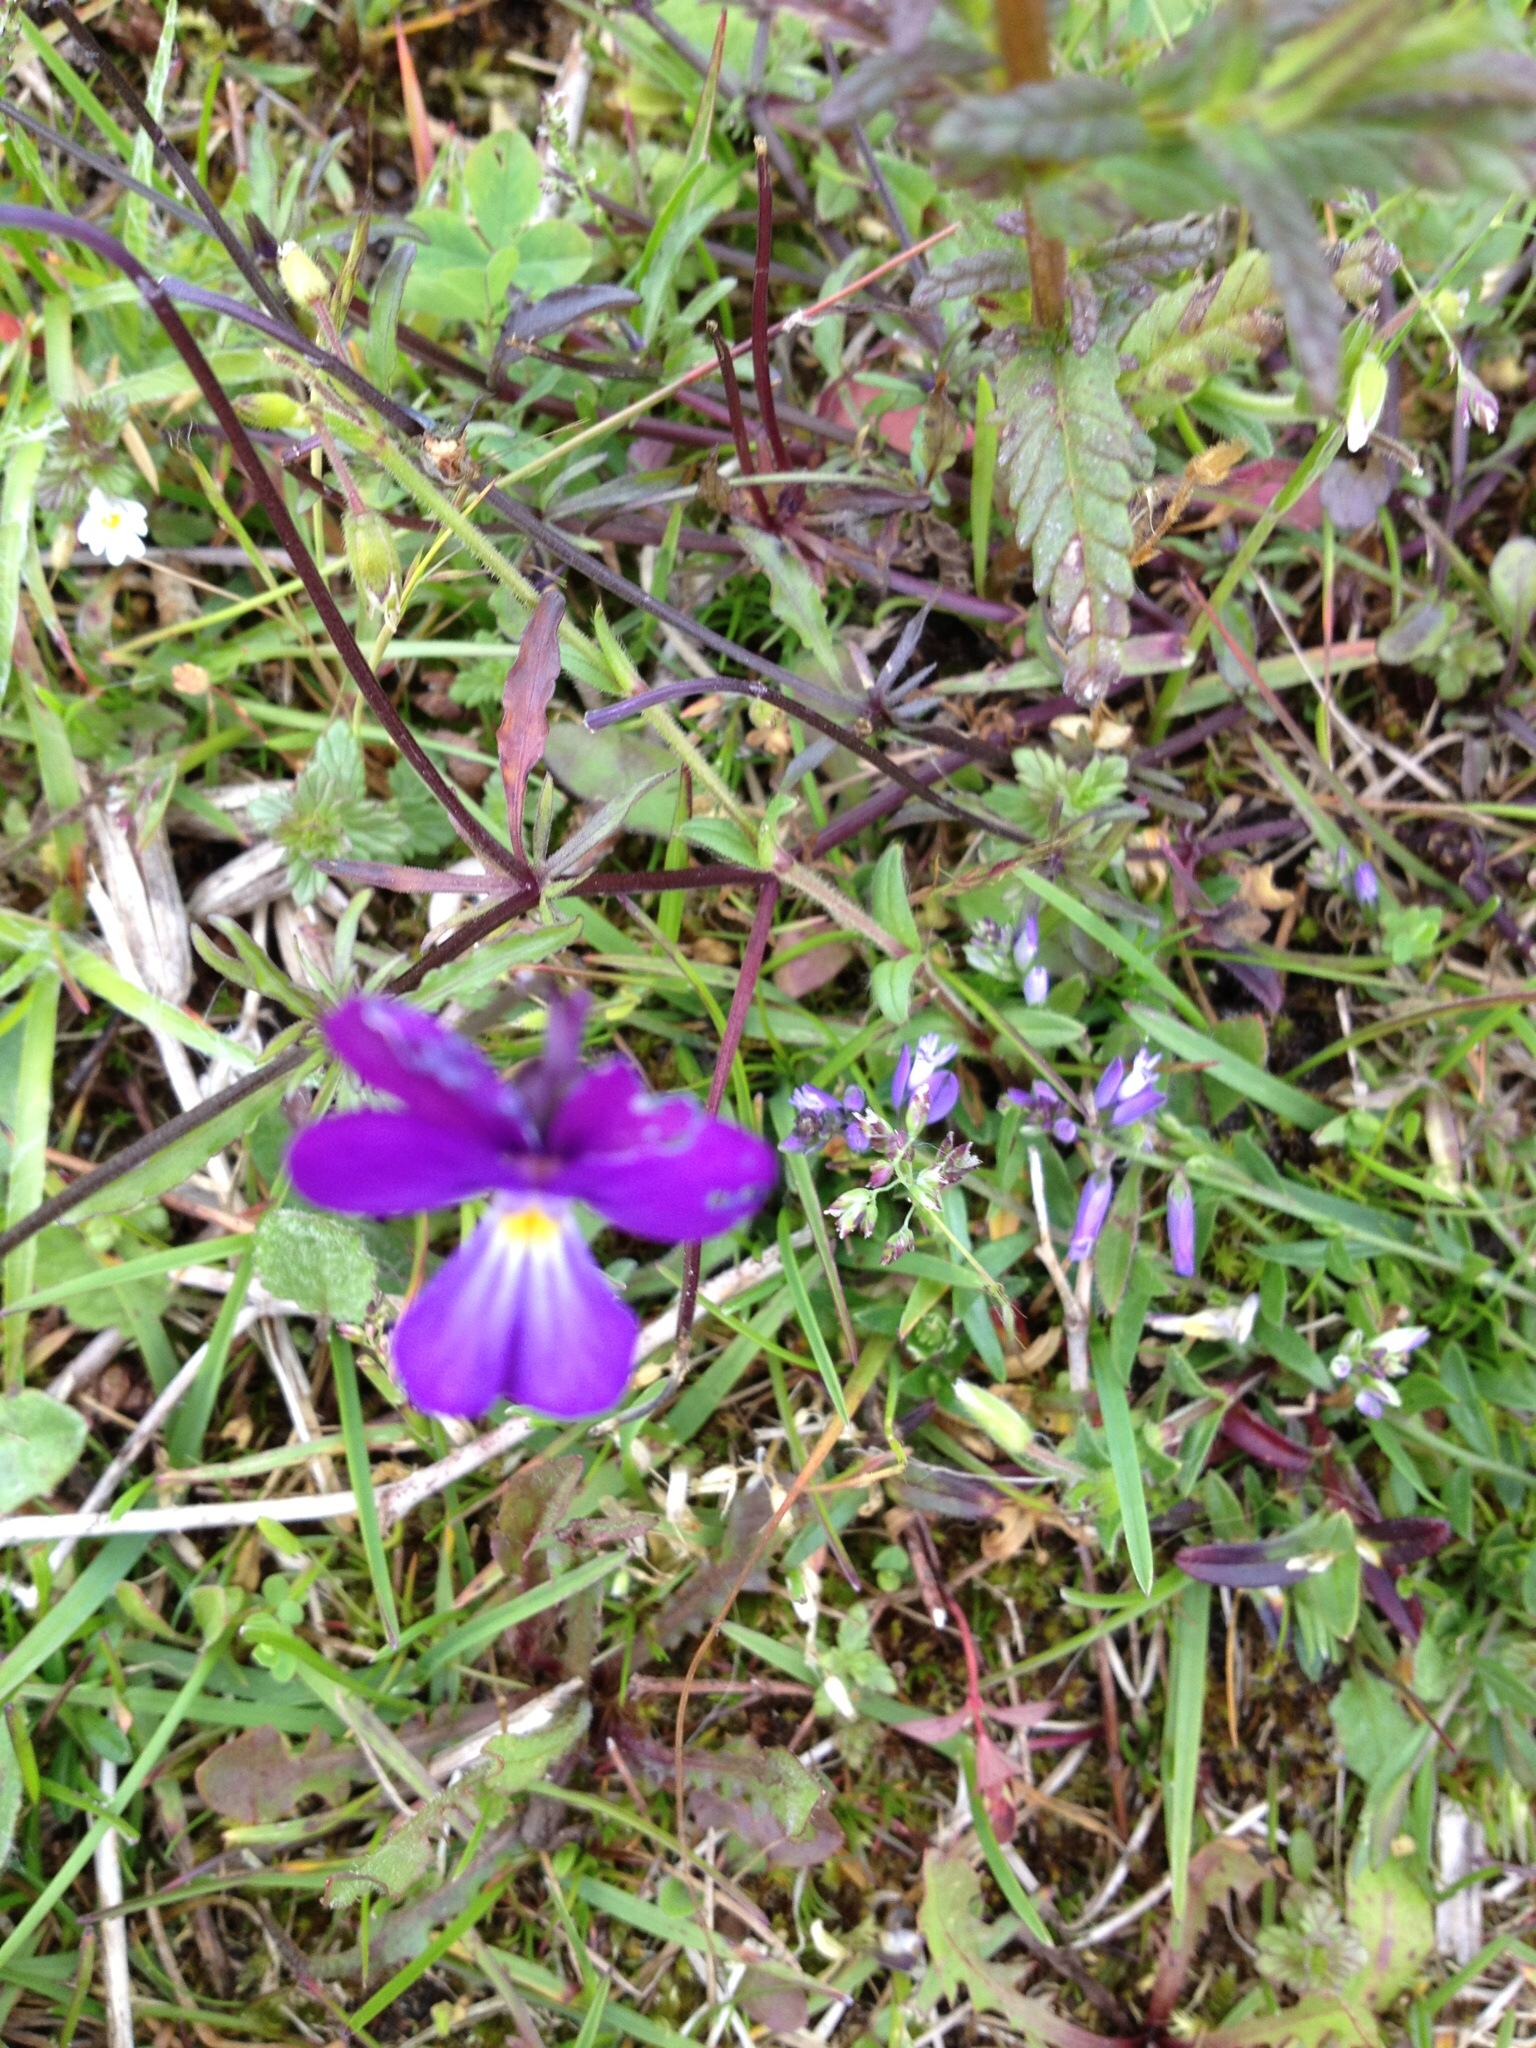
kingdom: Plantae
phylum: Tracheophyta
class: Magnoliopsida
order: Malpighiales
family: Violaceae
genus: Viola
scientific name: Viola tricolor
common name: Pansy
